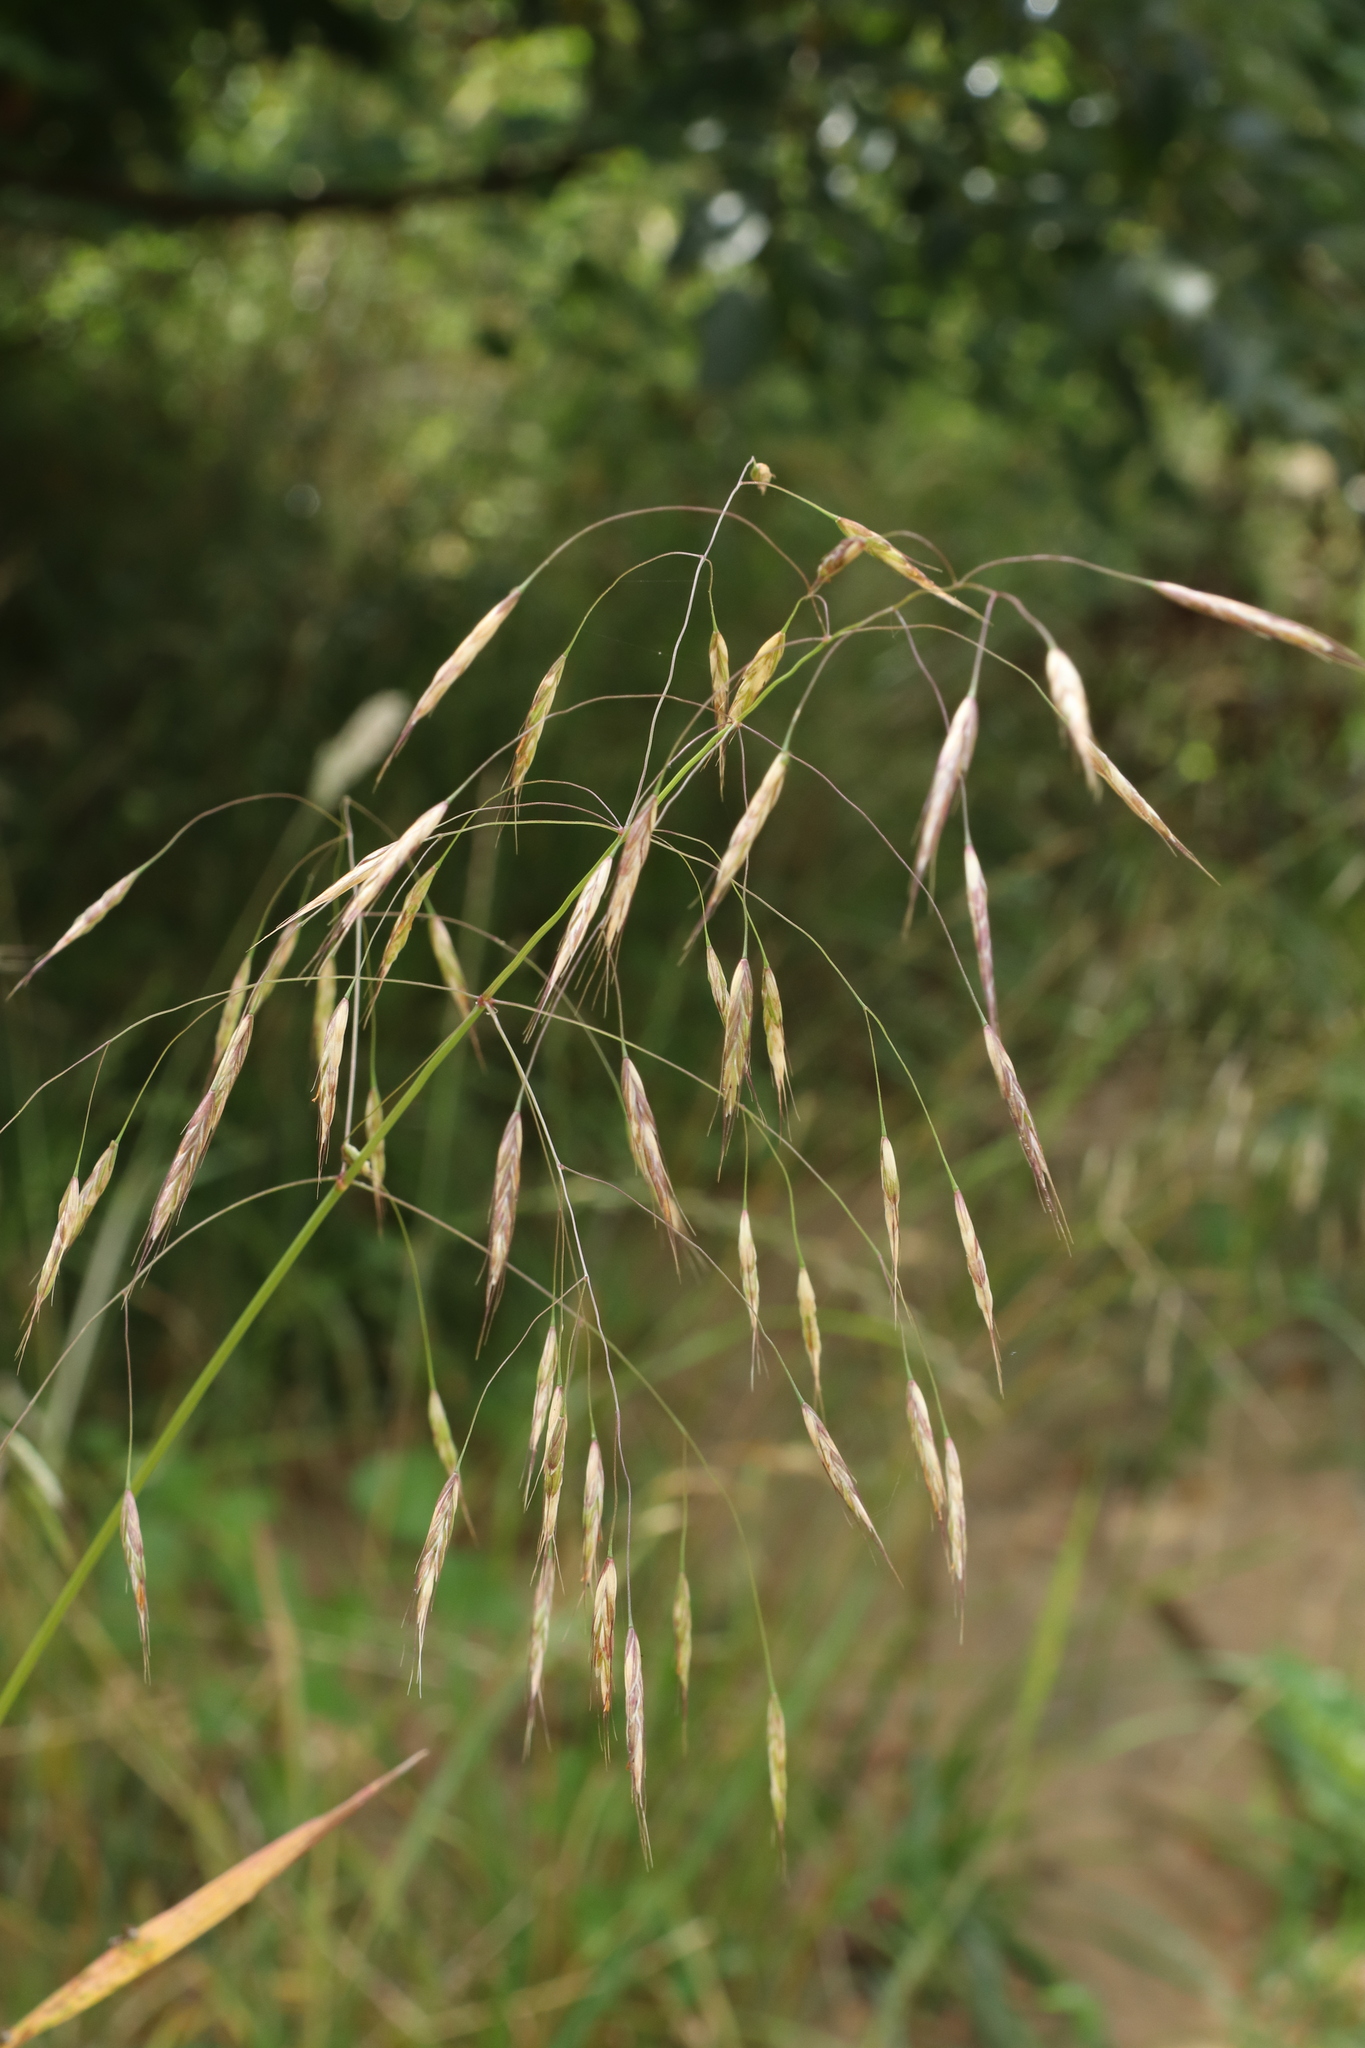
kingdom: Plantae
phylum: Tracheophyta
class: Liliopsida
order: Poales
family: Poaceae
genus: Bromus
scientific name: Bromus arvensis
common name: Field brome
